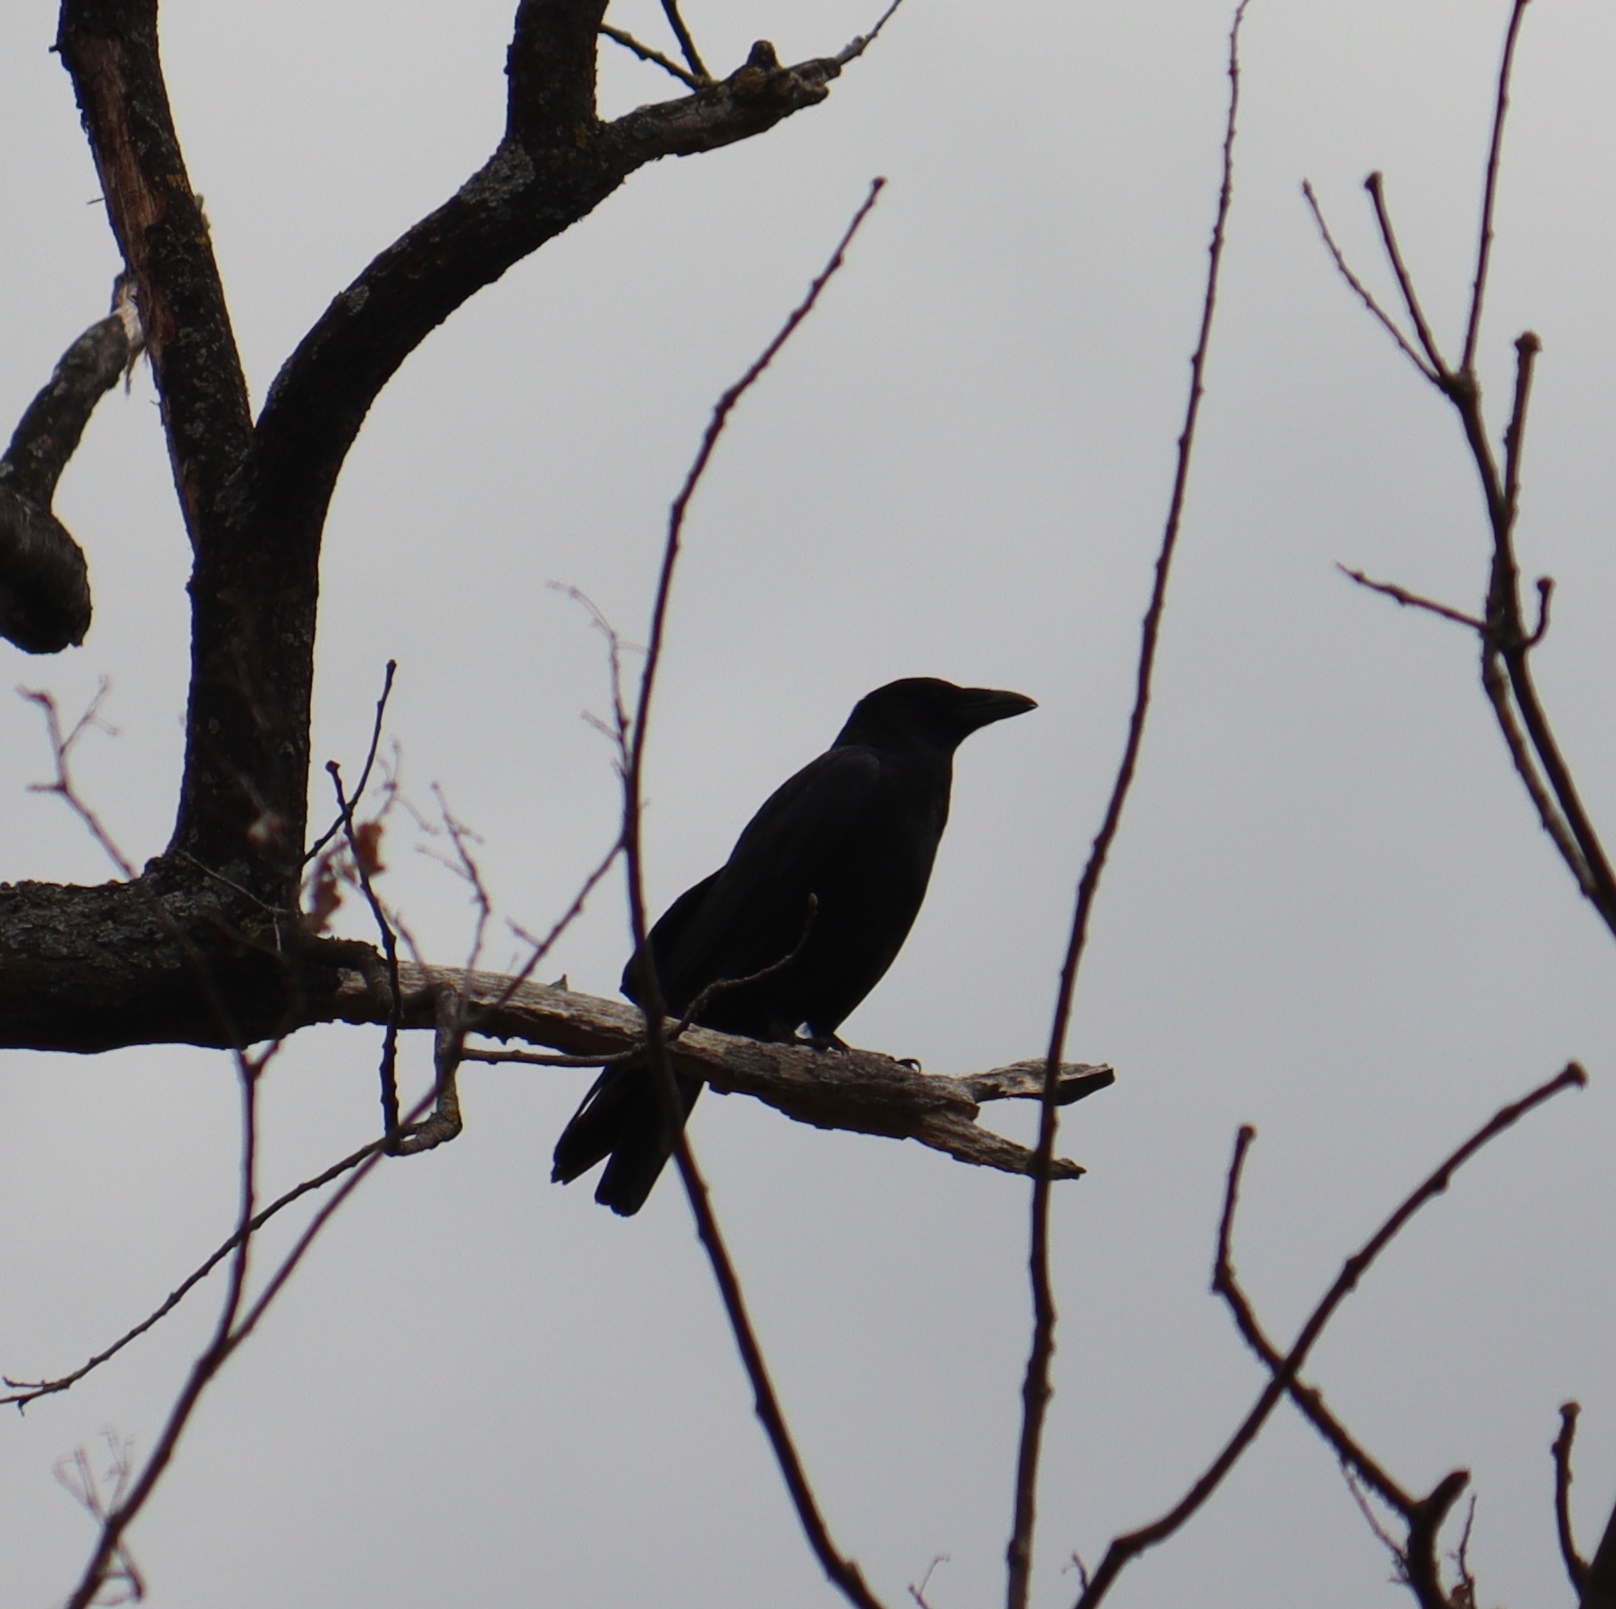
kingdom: Animalia
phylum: Chordata
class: Aves
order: Passeriformes
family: Corvidae
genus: Corvus
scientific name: Corvus corone
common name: Carrion crow
